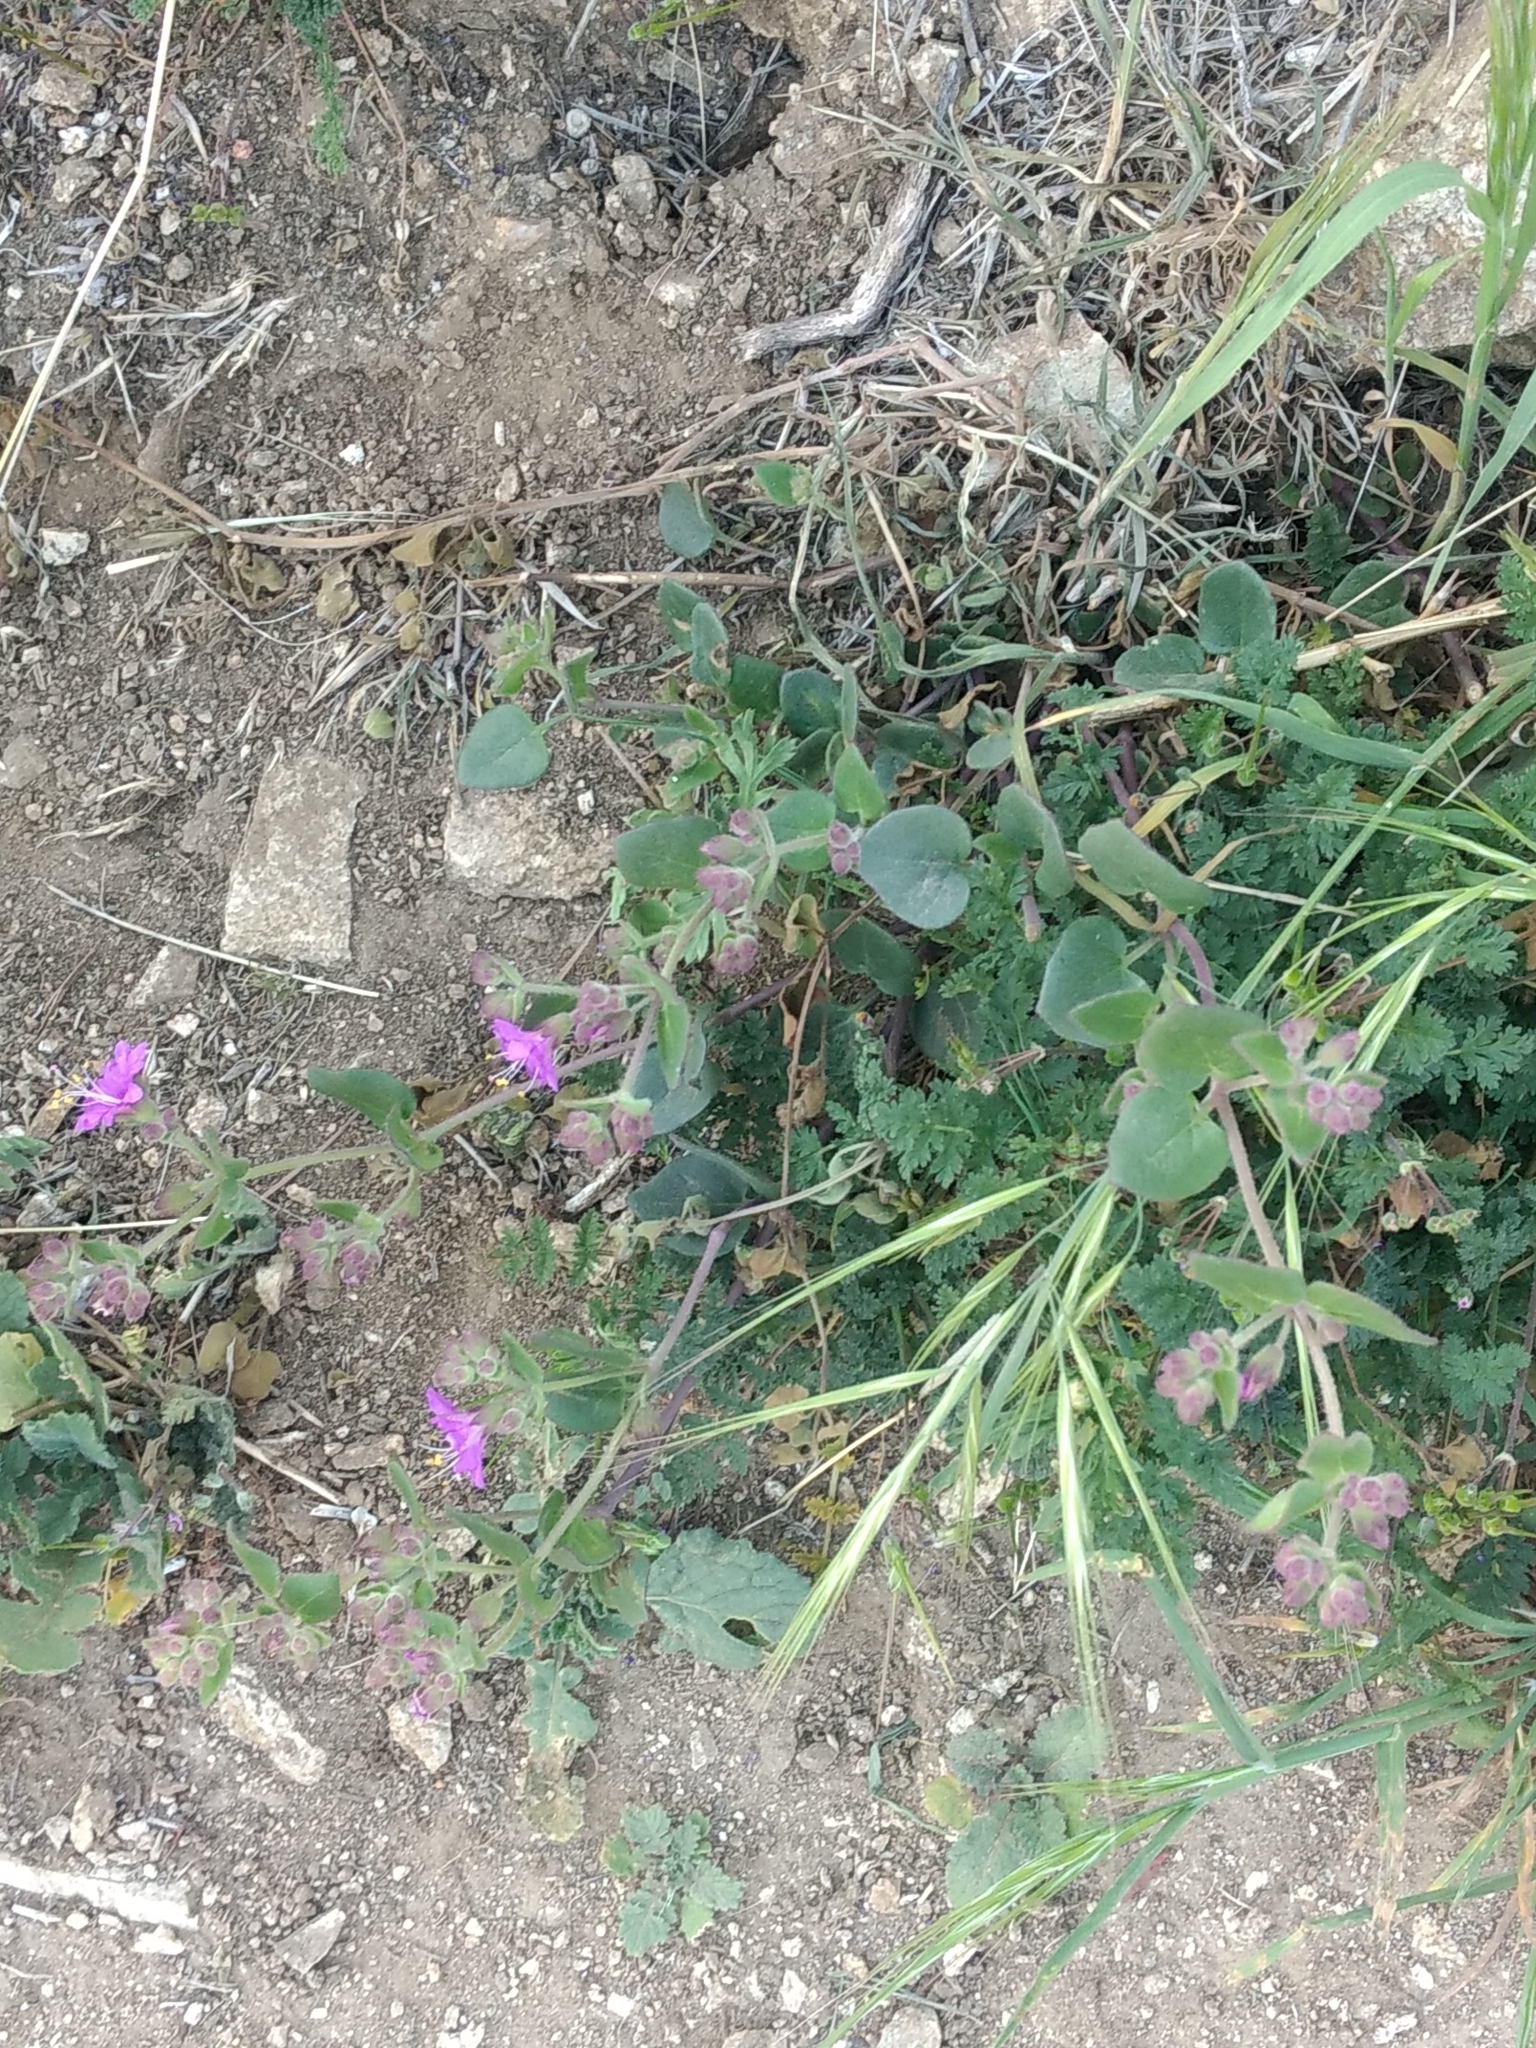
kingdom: Plantae
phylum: Tracheophyta
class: Magnoliopsida
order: Caryophyllales
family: Nyctaginaceae
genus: Mirabilis
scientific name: Mirabilis laevis
